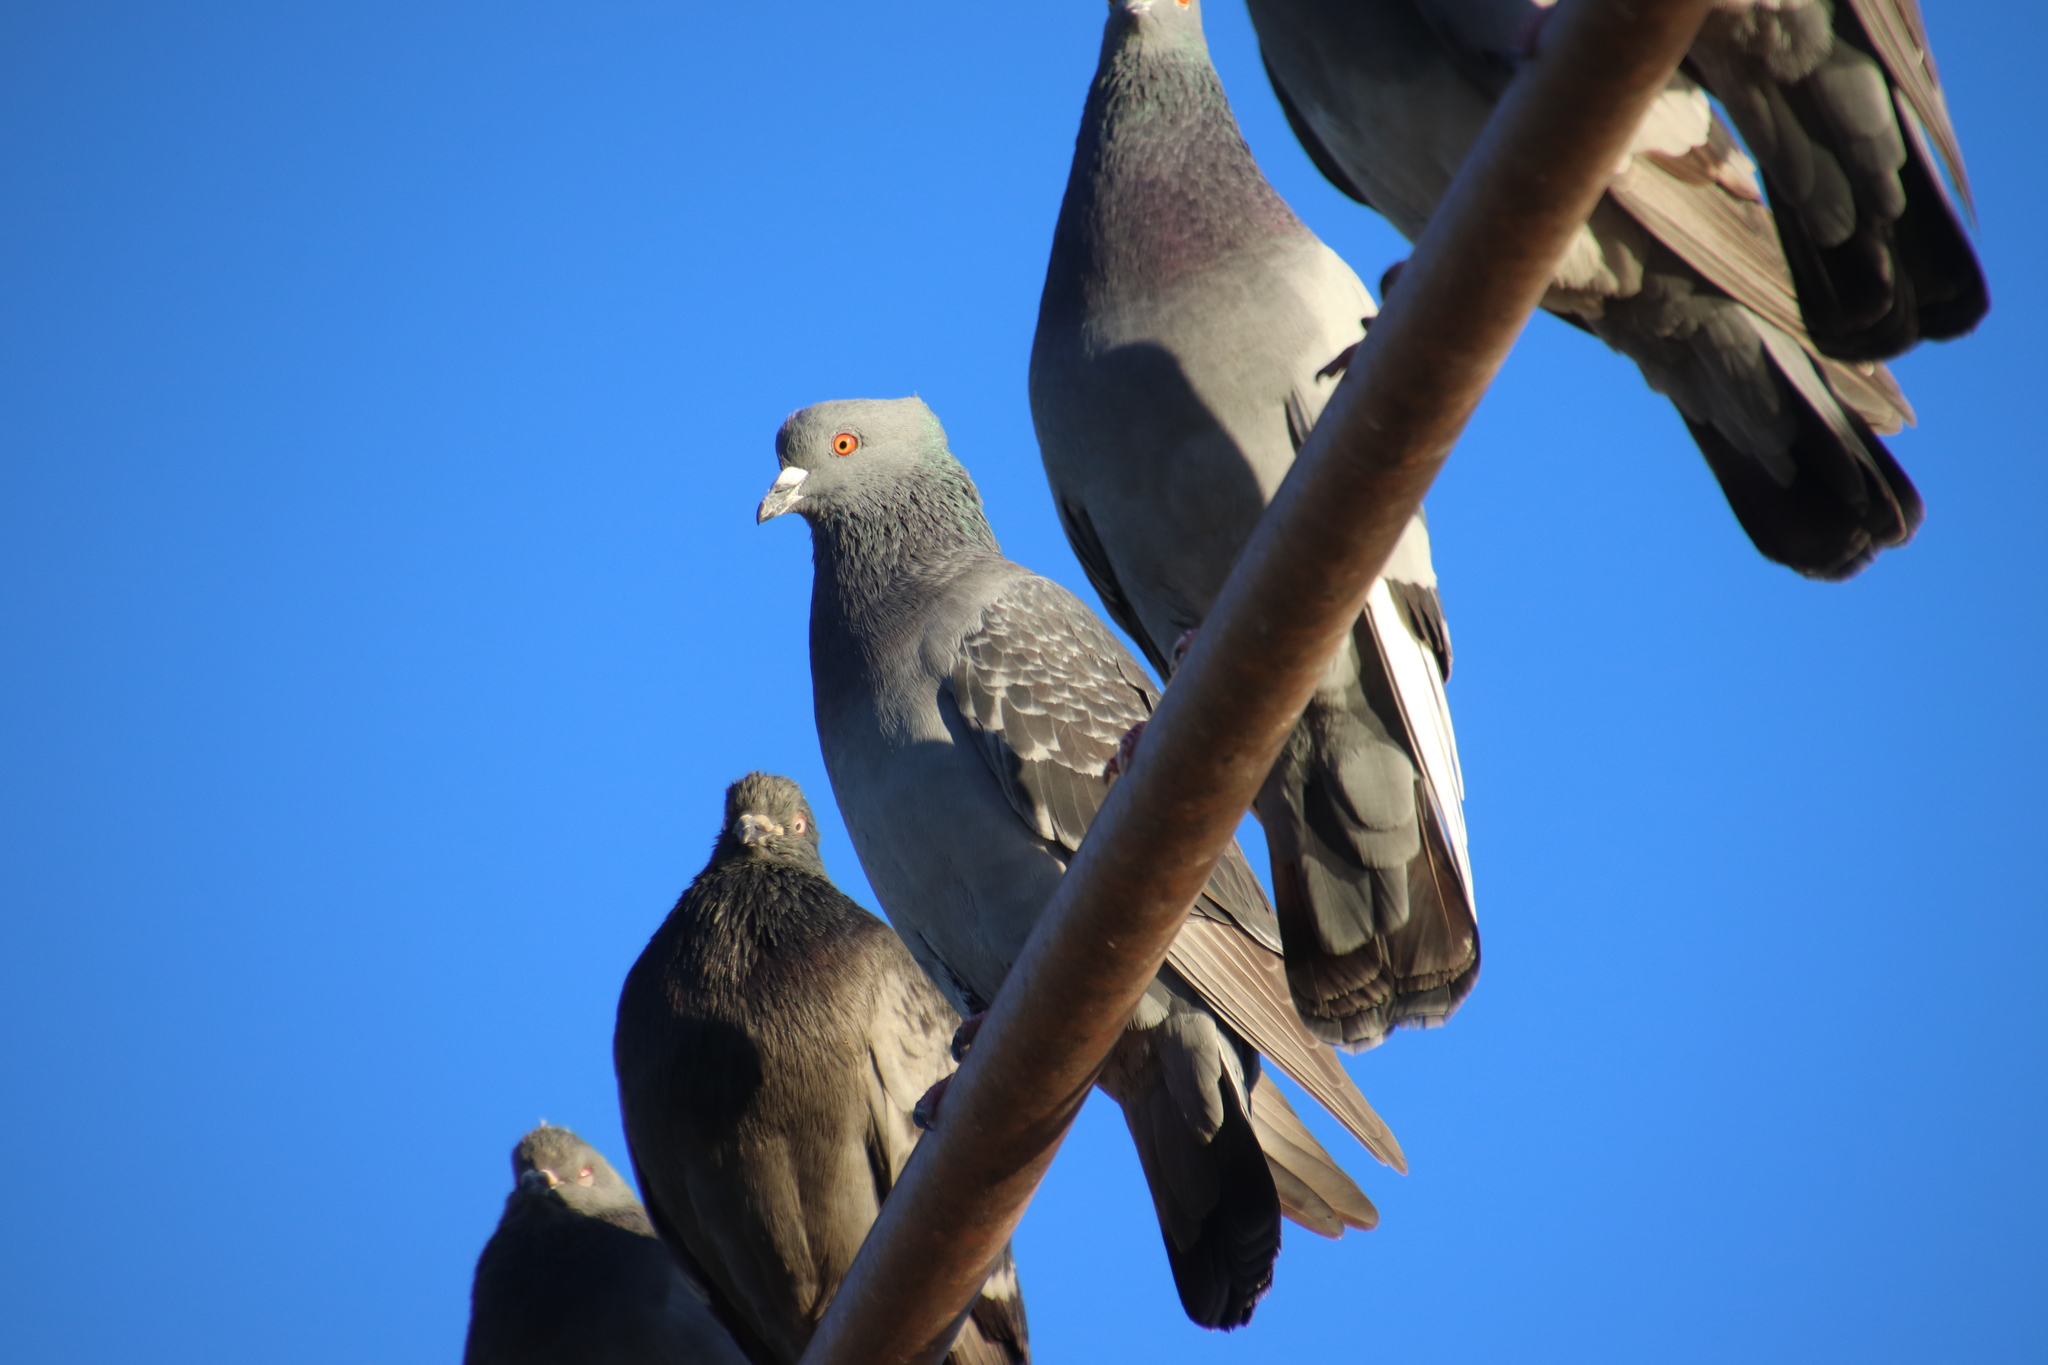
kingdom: Animalia
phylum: Chordata
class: Aves
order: Columbiformes
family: Columbidae
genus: Columba
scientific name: Columba livia
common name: Rock pigeon
